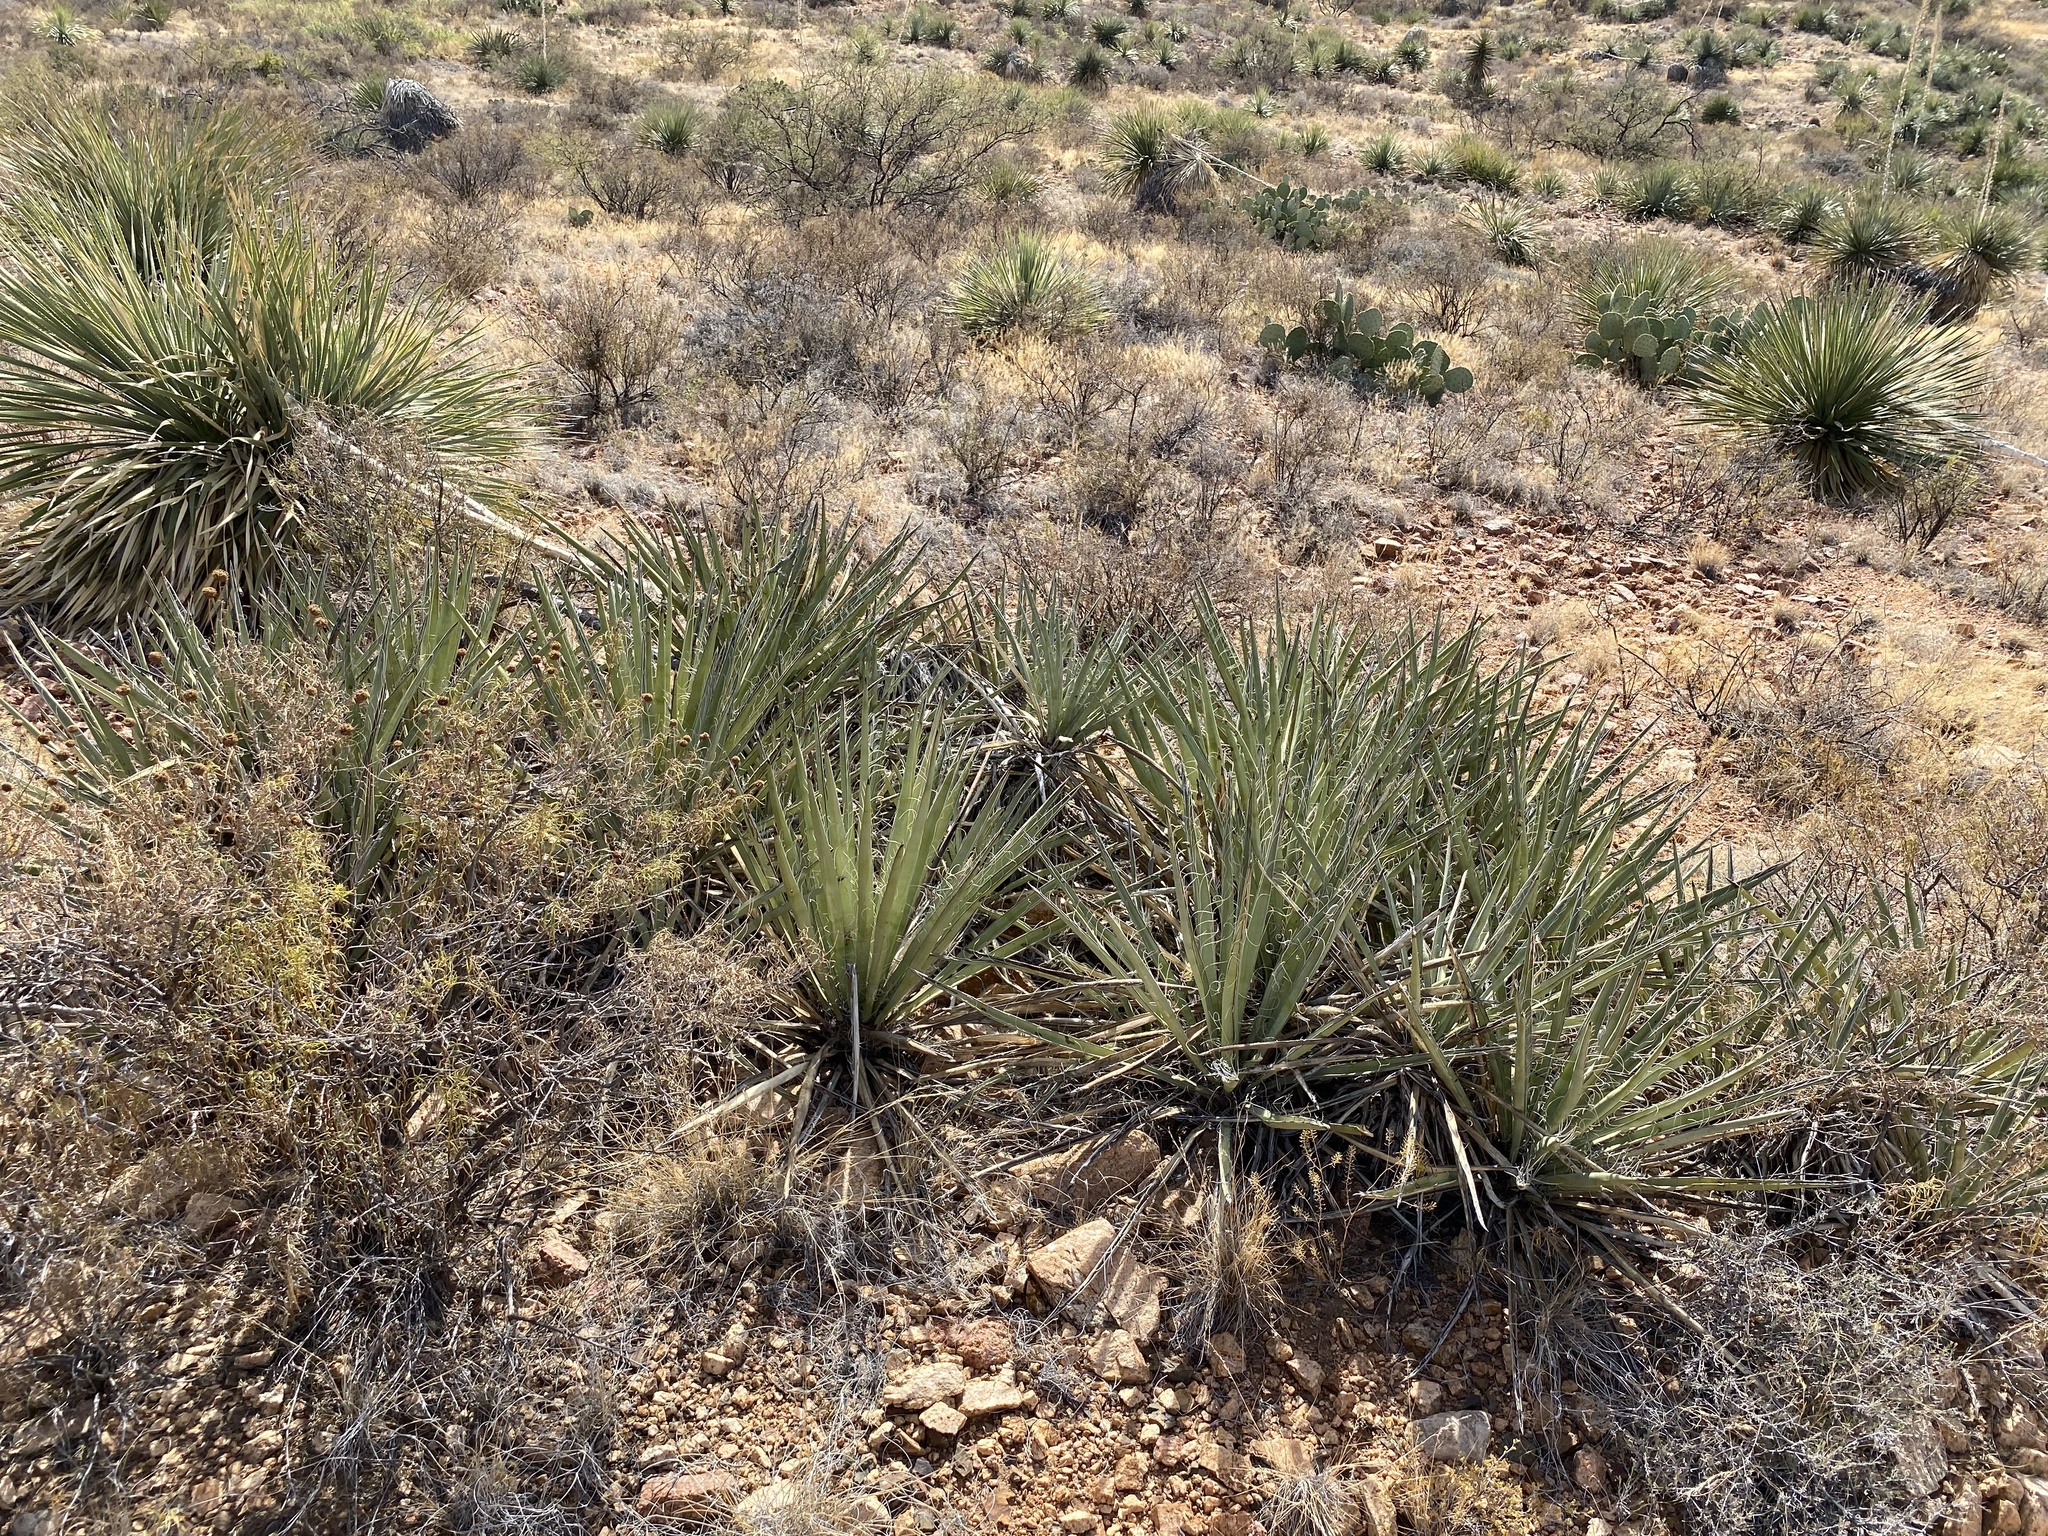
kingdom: Plantae
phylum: Tracheophyta
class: Liliopsida
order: Asparagales
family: Asparagaceae
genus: Yucca
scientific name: Yucca baccata
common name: Banana yucca
